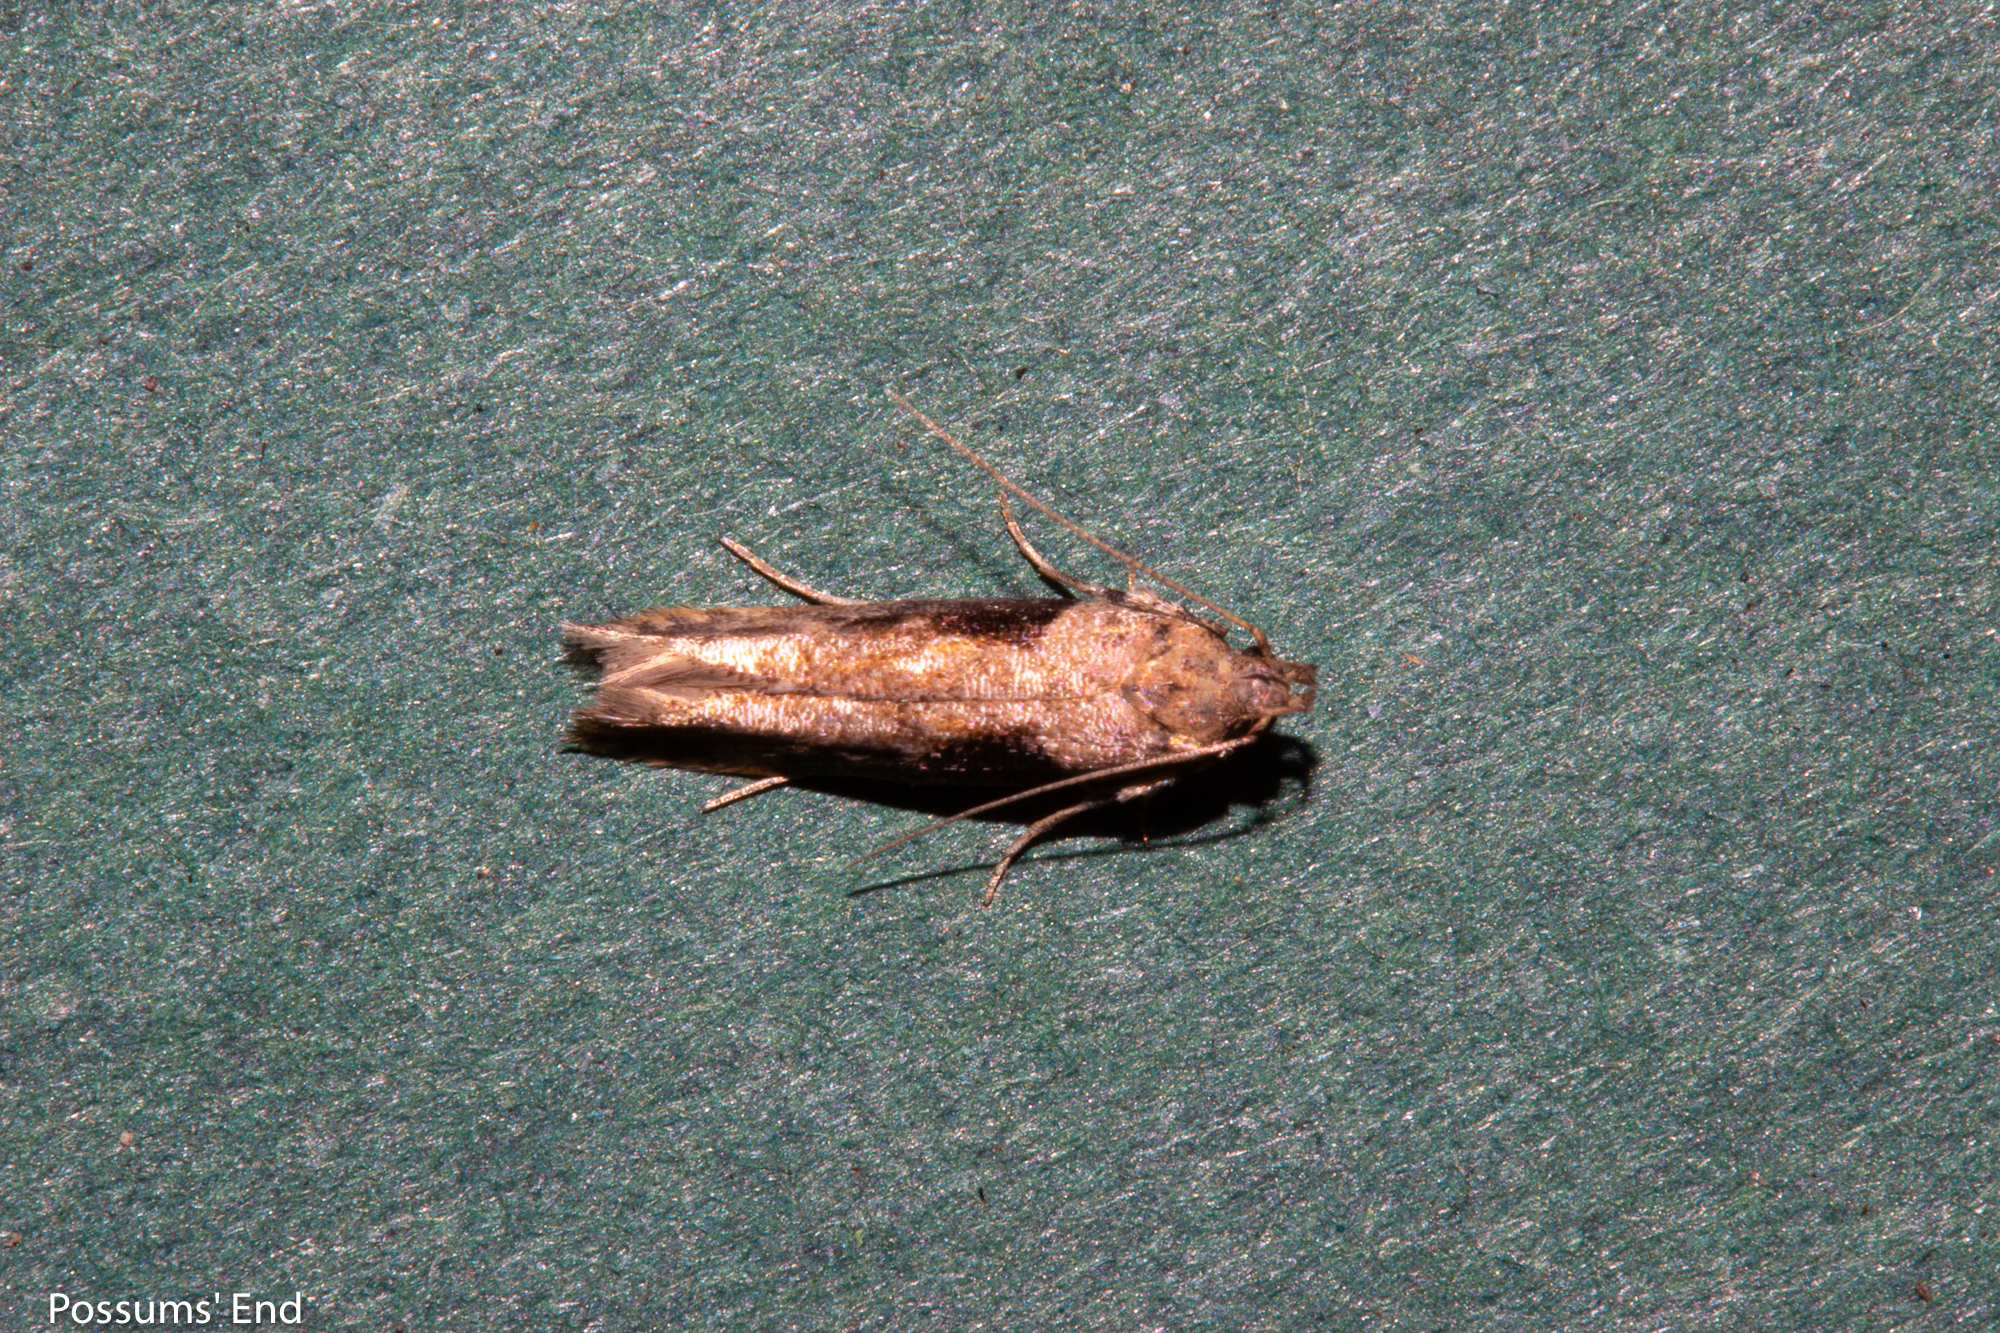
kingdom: Animalia
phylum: Arthropoda
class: Insecta
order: Lepidoptera
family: Gelechiidae
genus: Symmetrischema
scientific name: Symmetrischema tangolias
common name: Moth
